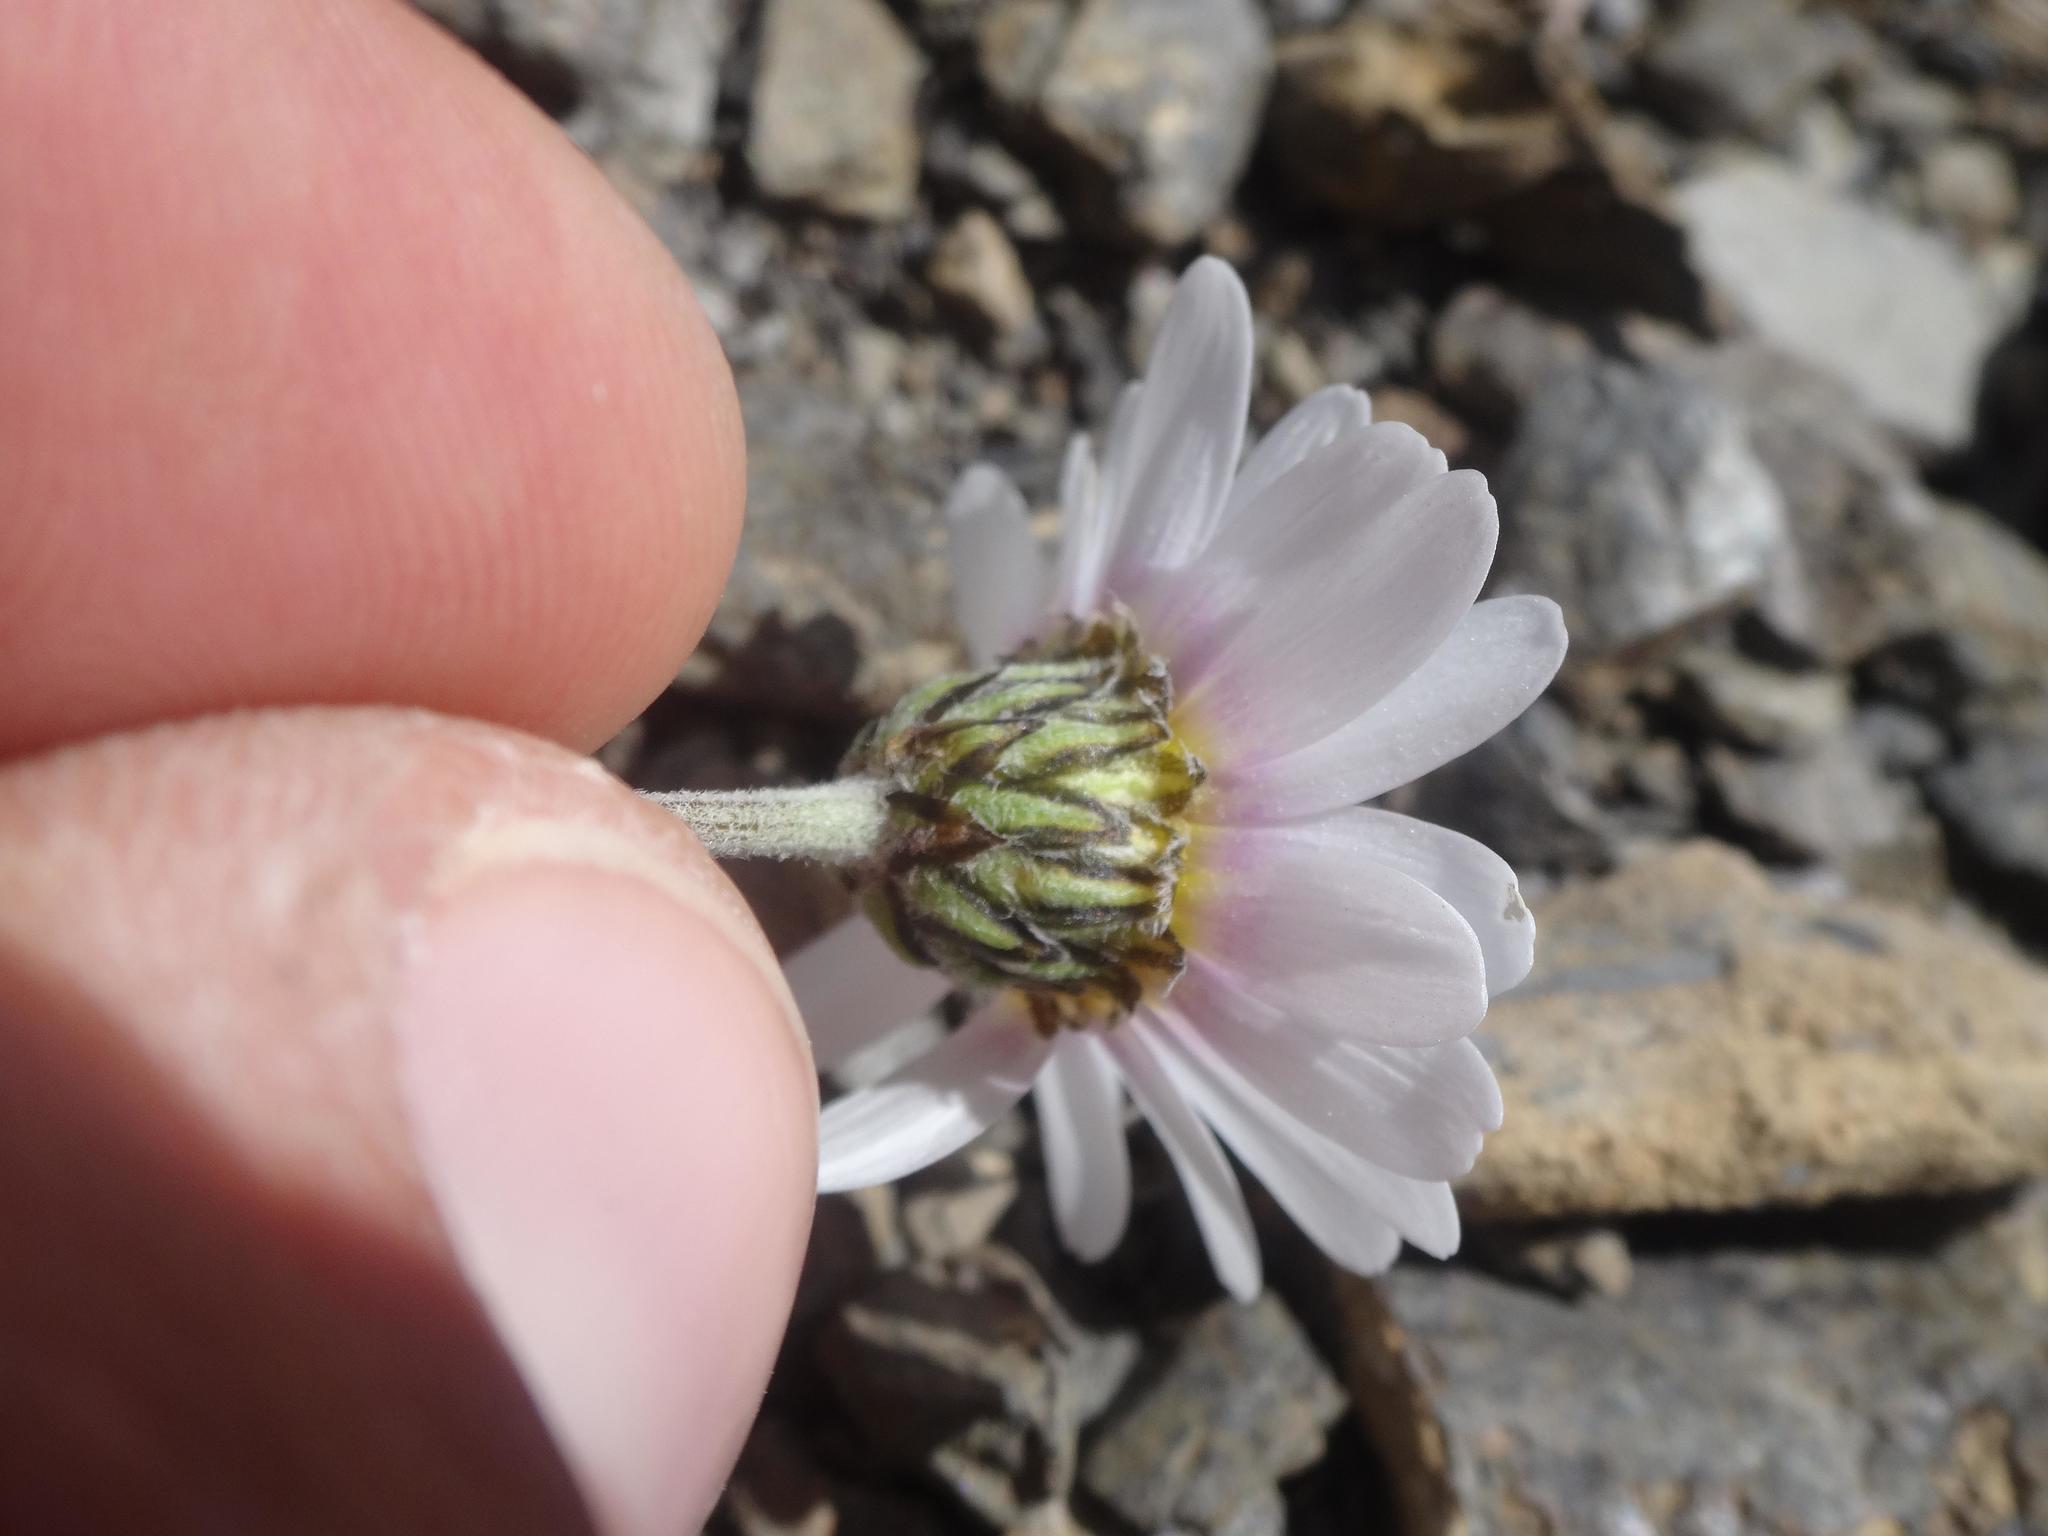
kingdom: Plantae
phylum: Tracheophyta
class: Magnoliopsida
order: Asterales
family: Asteraceae
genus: Leucanthemopsis
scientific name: Leucanthemopsis alpina
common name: Alpine moon daisy
